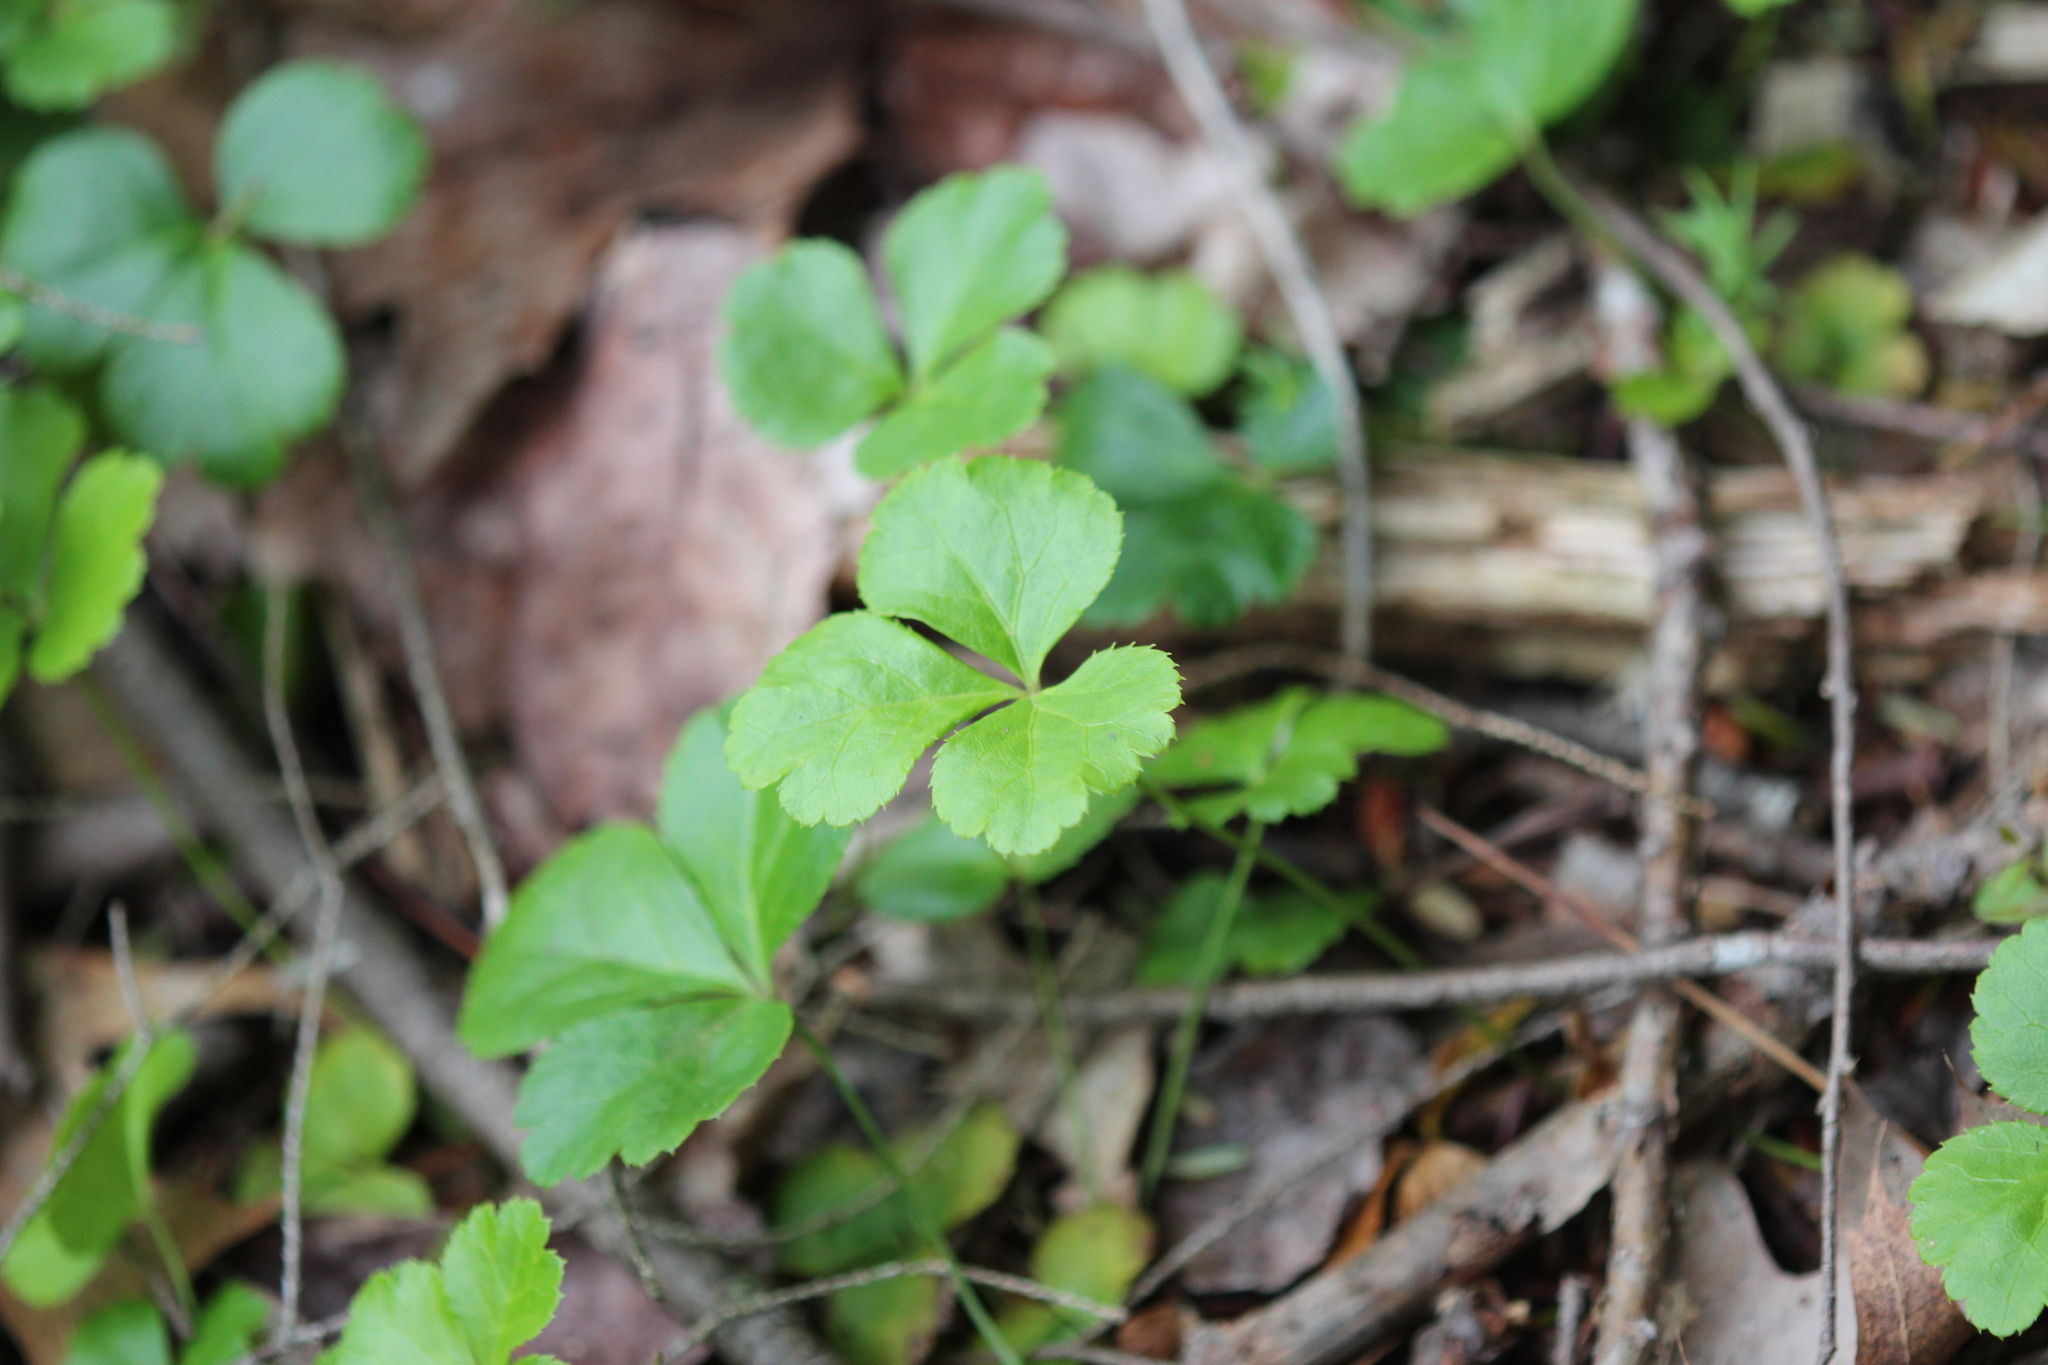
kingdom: Plantae
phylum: Tracheophyta
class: Magnoliopsida
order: Ranunculales
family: Ranunculaceae
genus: Coptis
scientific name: Coptis trifolia
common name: Canker-root
